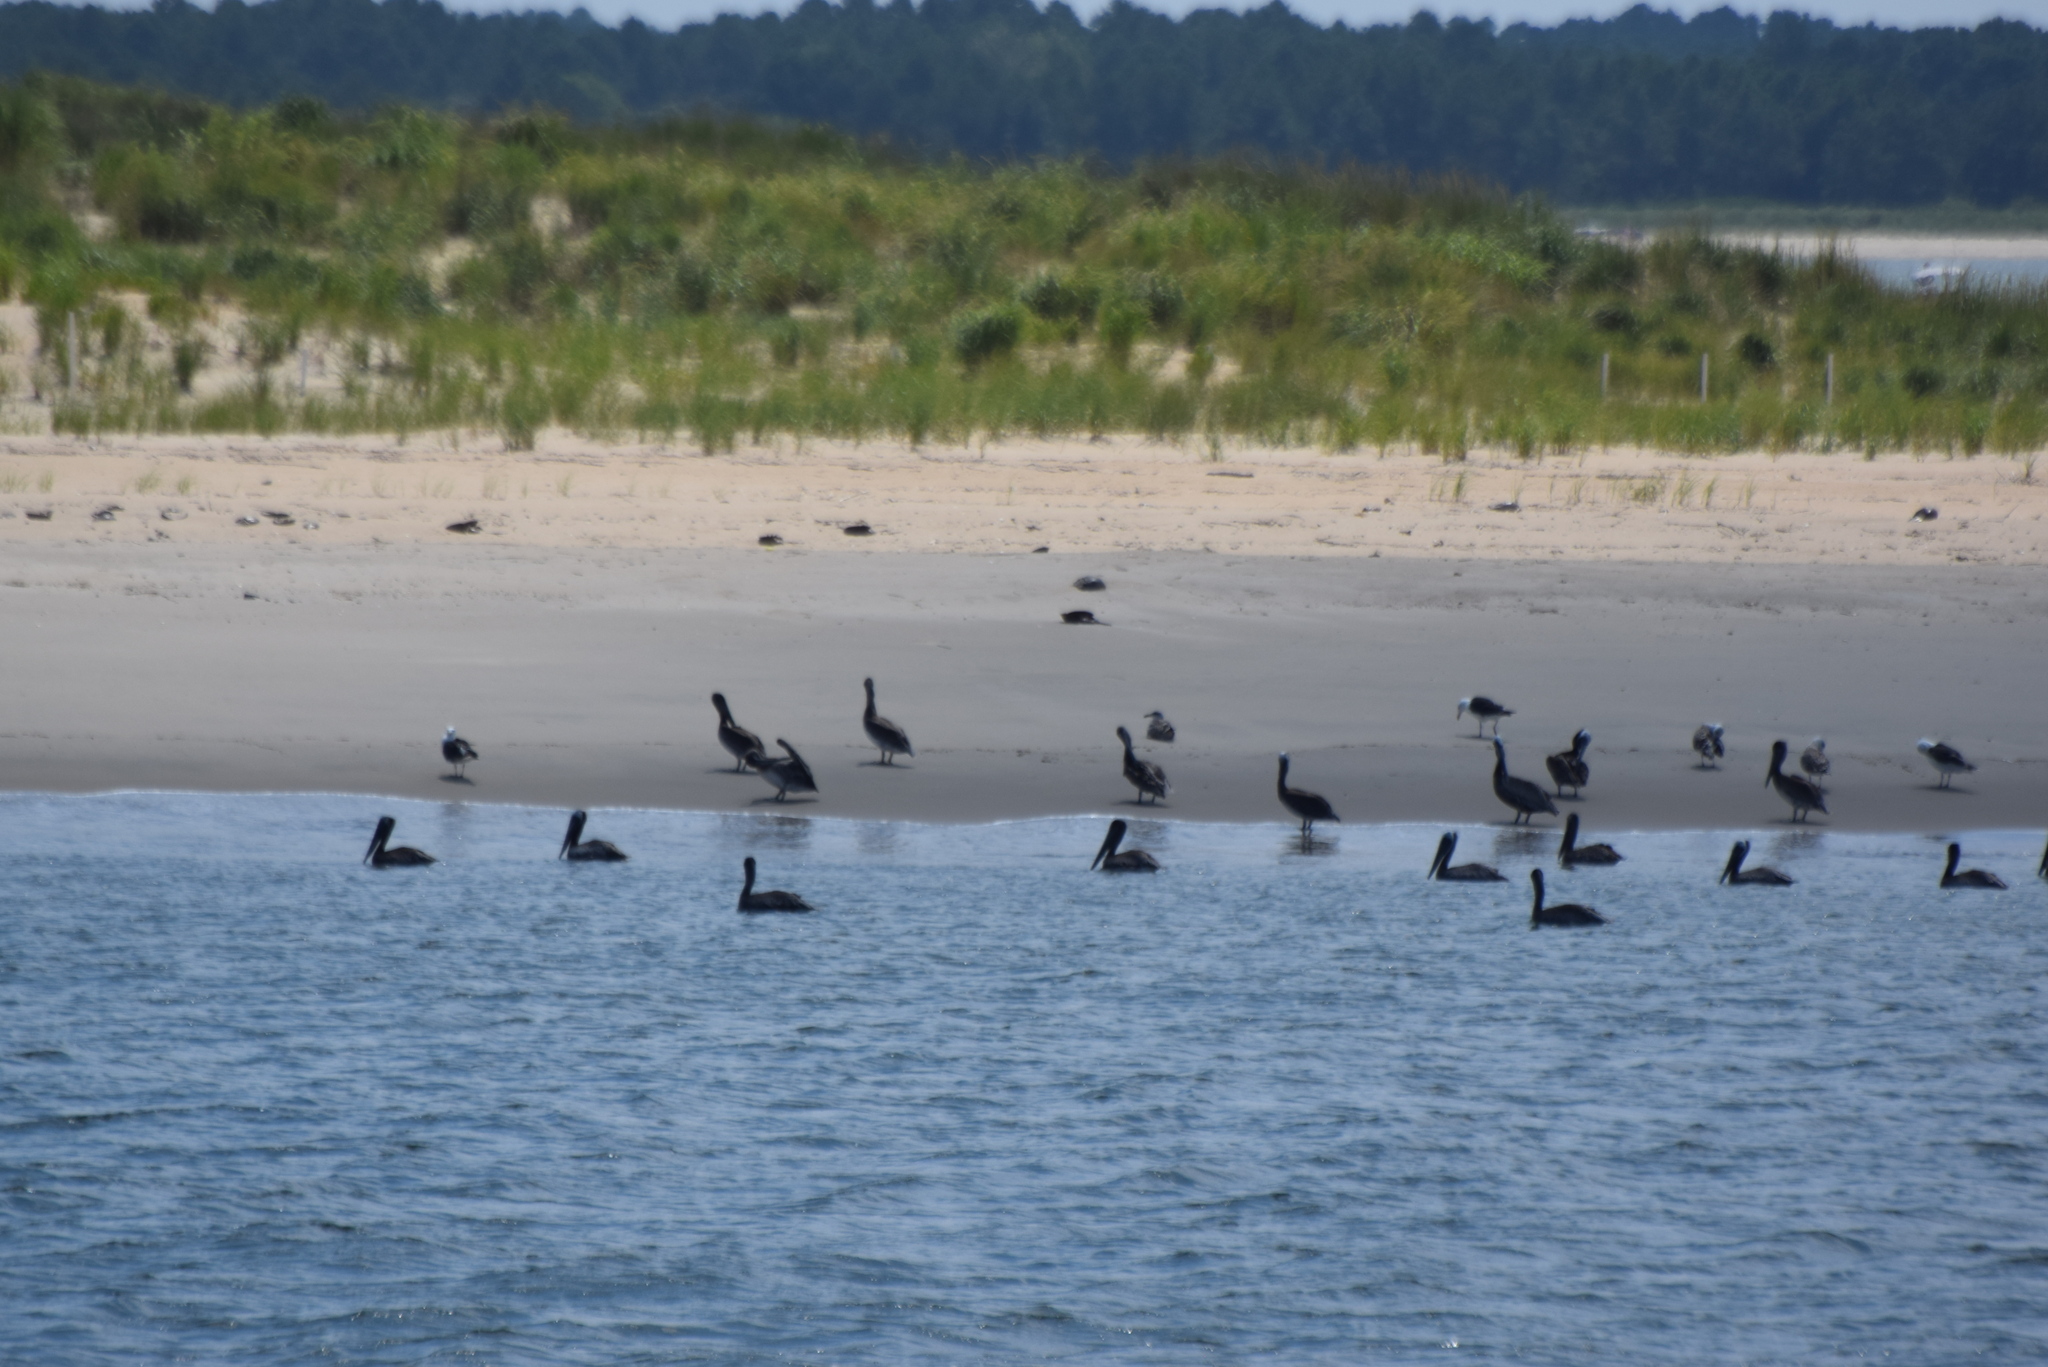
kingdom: Animalia
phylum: Chordata
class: Aves
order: Pelecaniformes
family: Pelecanidae
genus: Pelecanus
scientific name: Pelecanus occidentalis
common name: Brown pelican
